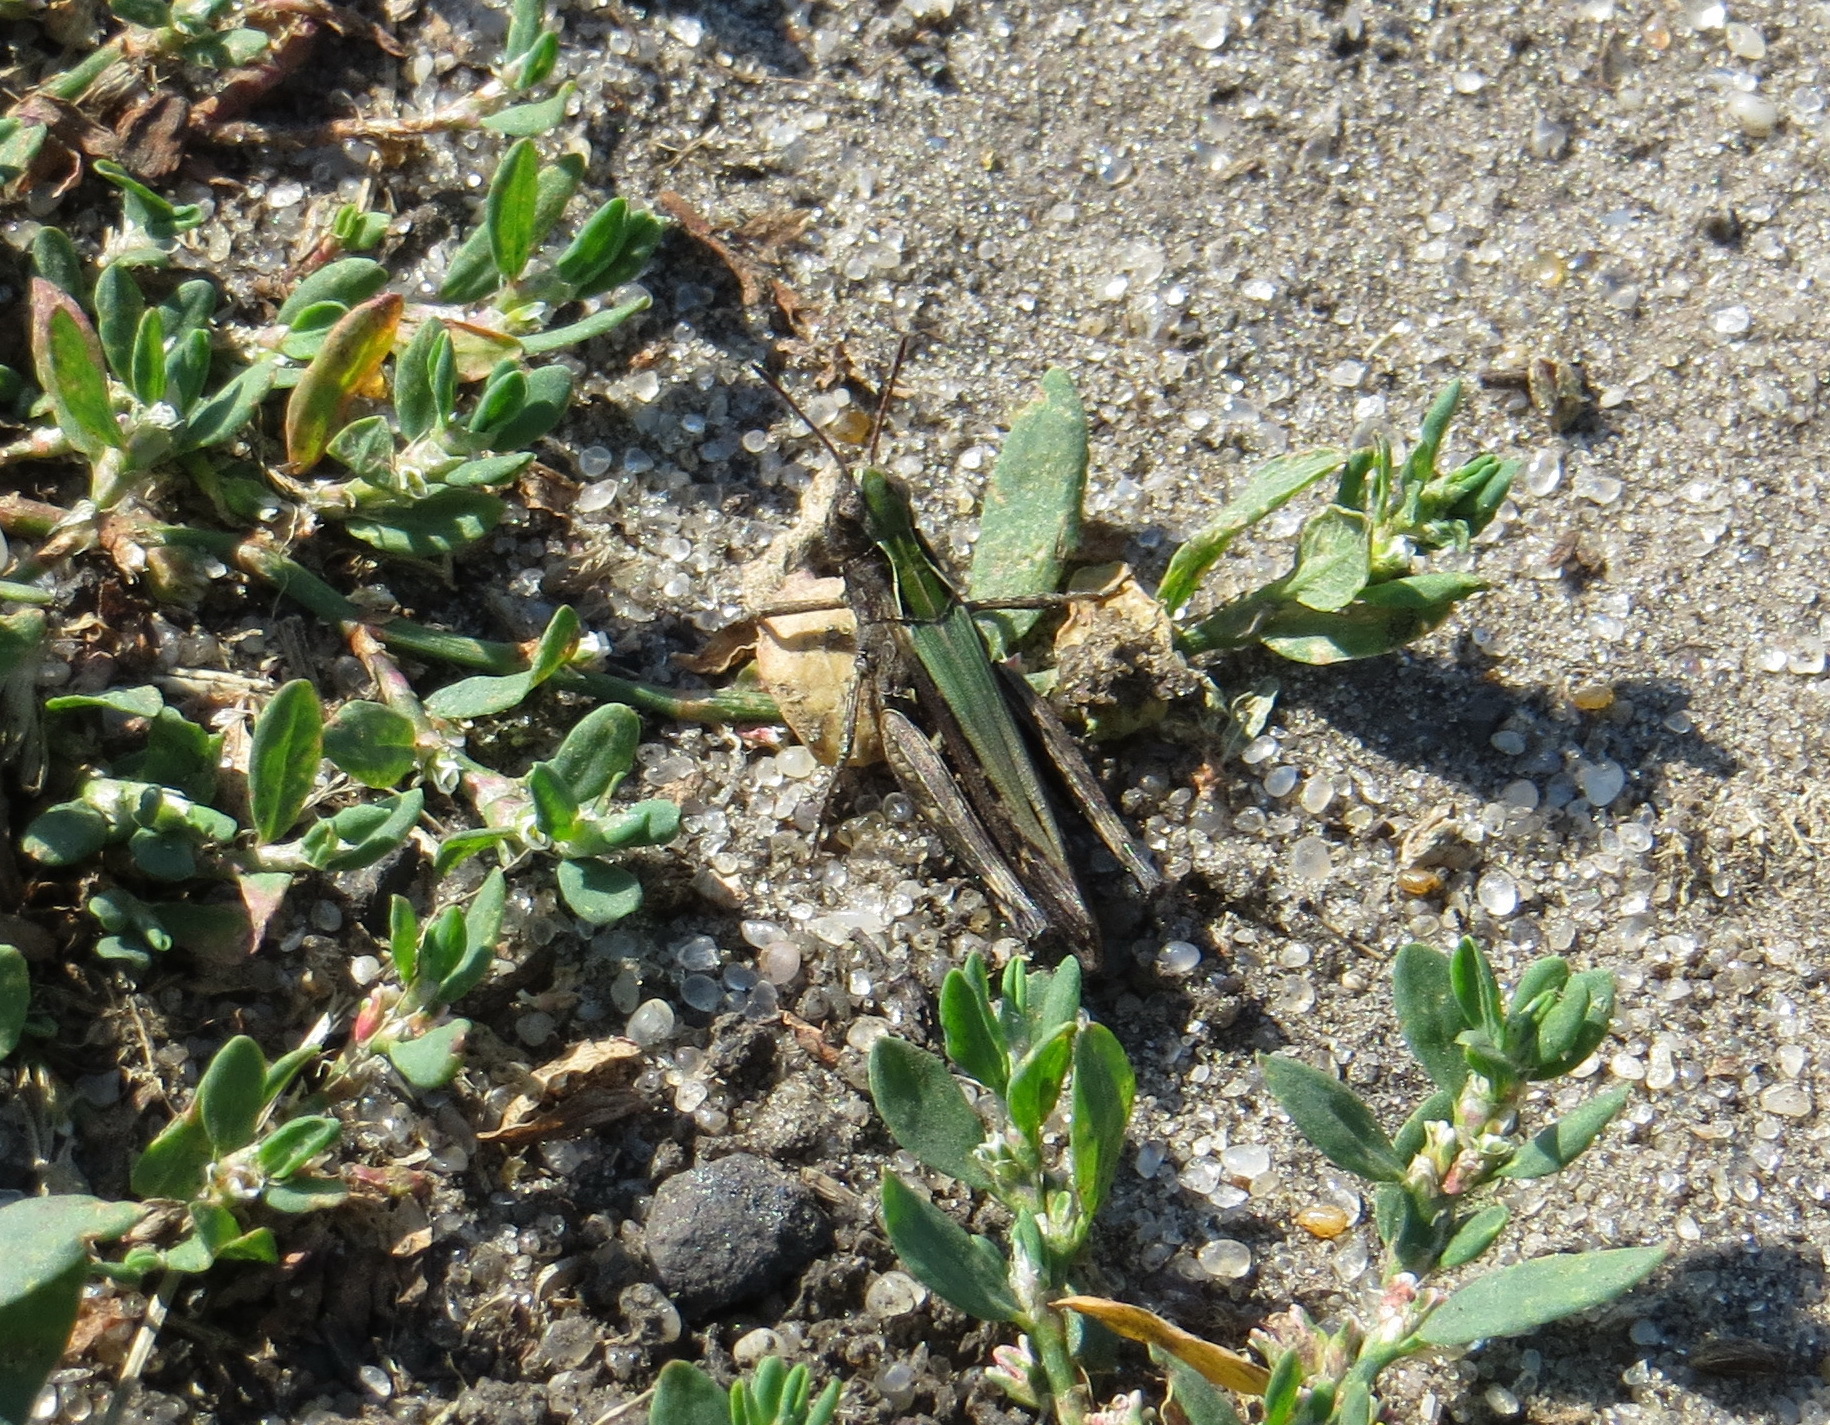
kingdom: Animalia
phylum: Arthropoda
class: Insecta
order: Orthoptera
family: Acrididae
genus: Omocestus
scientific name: Omocestus viridulus
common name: Common green grasshopper
